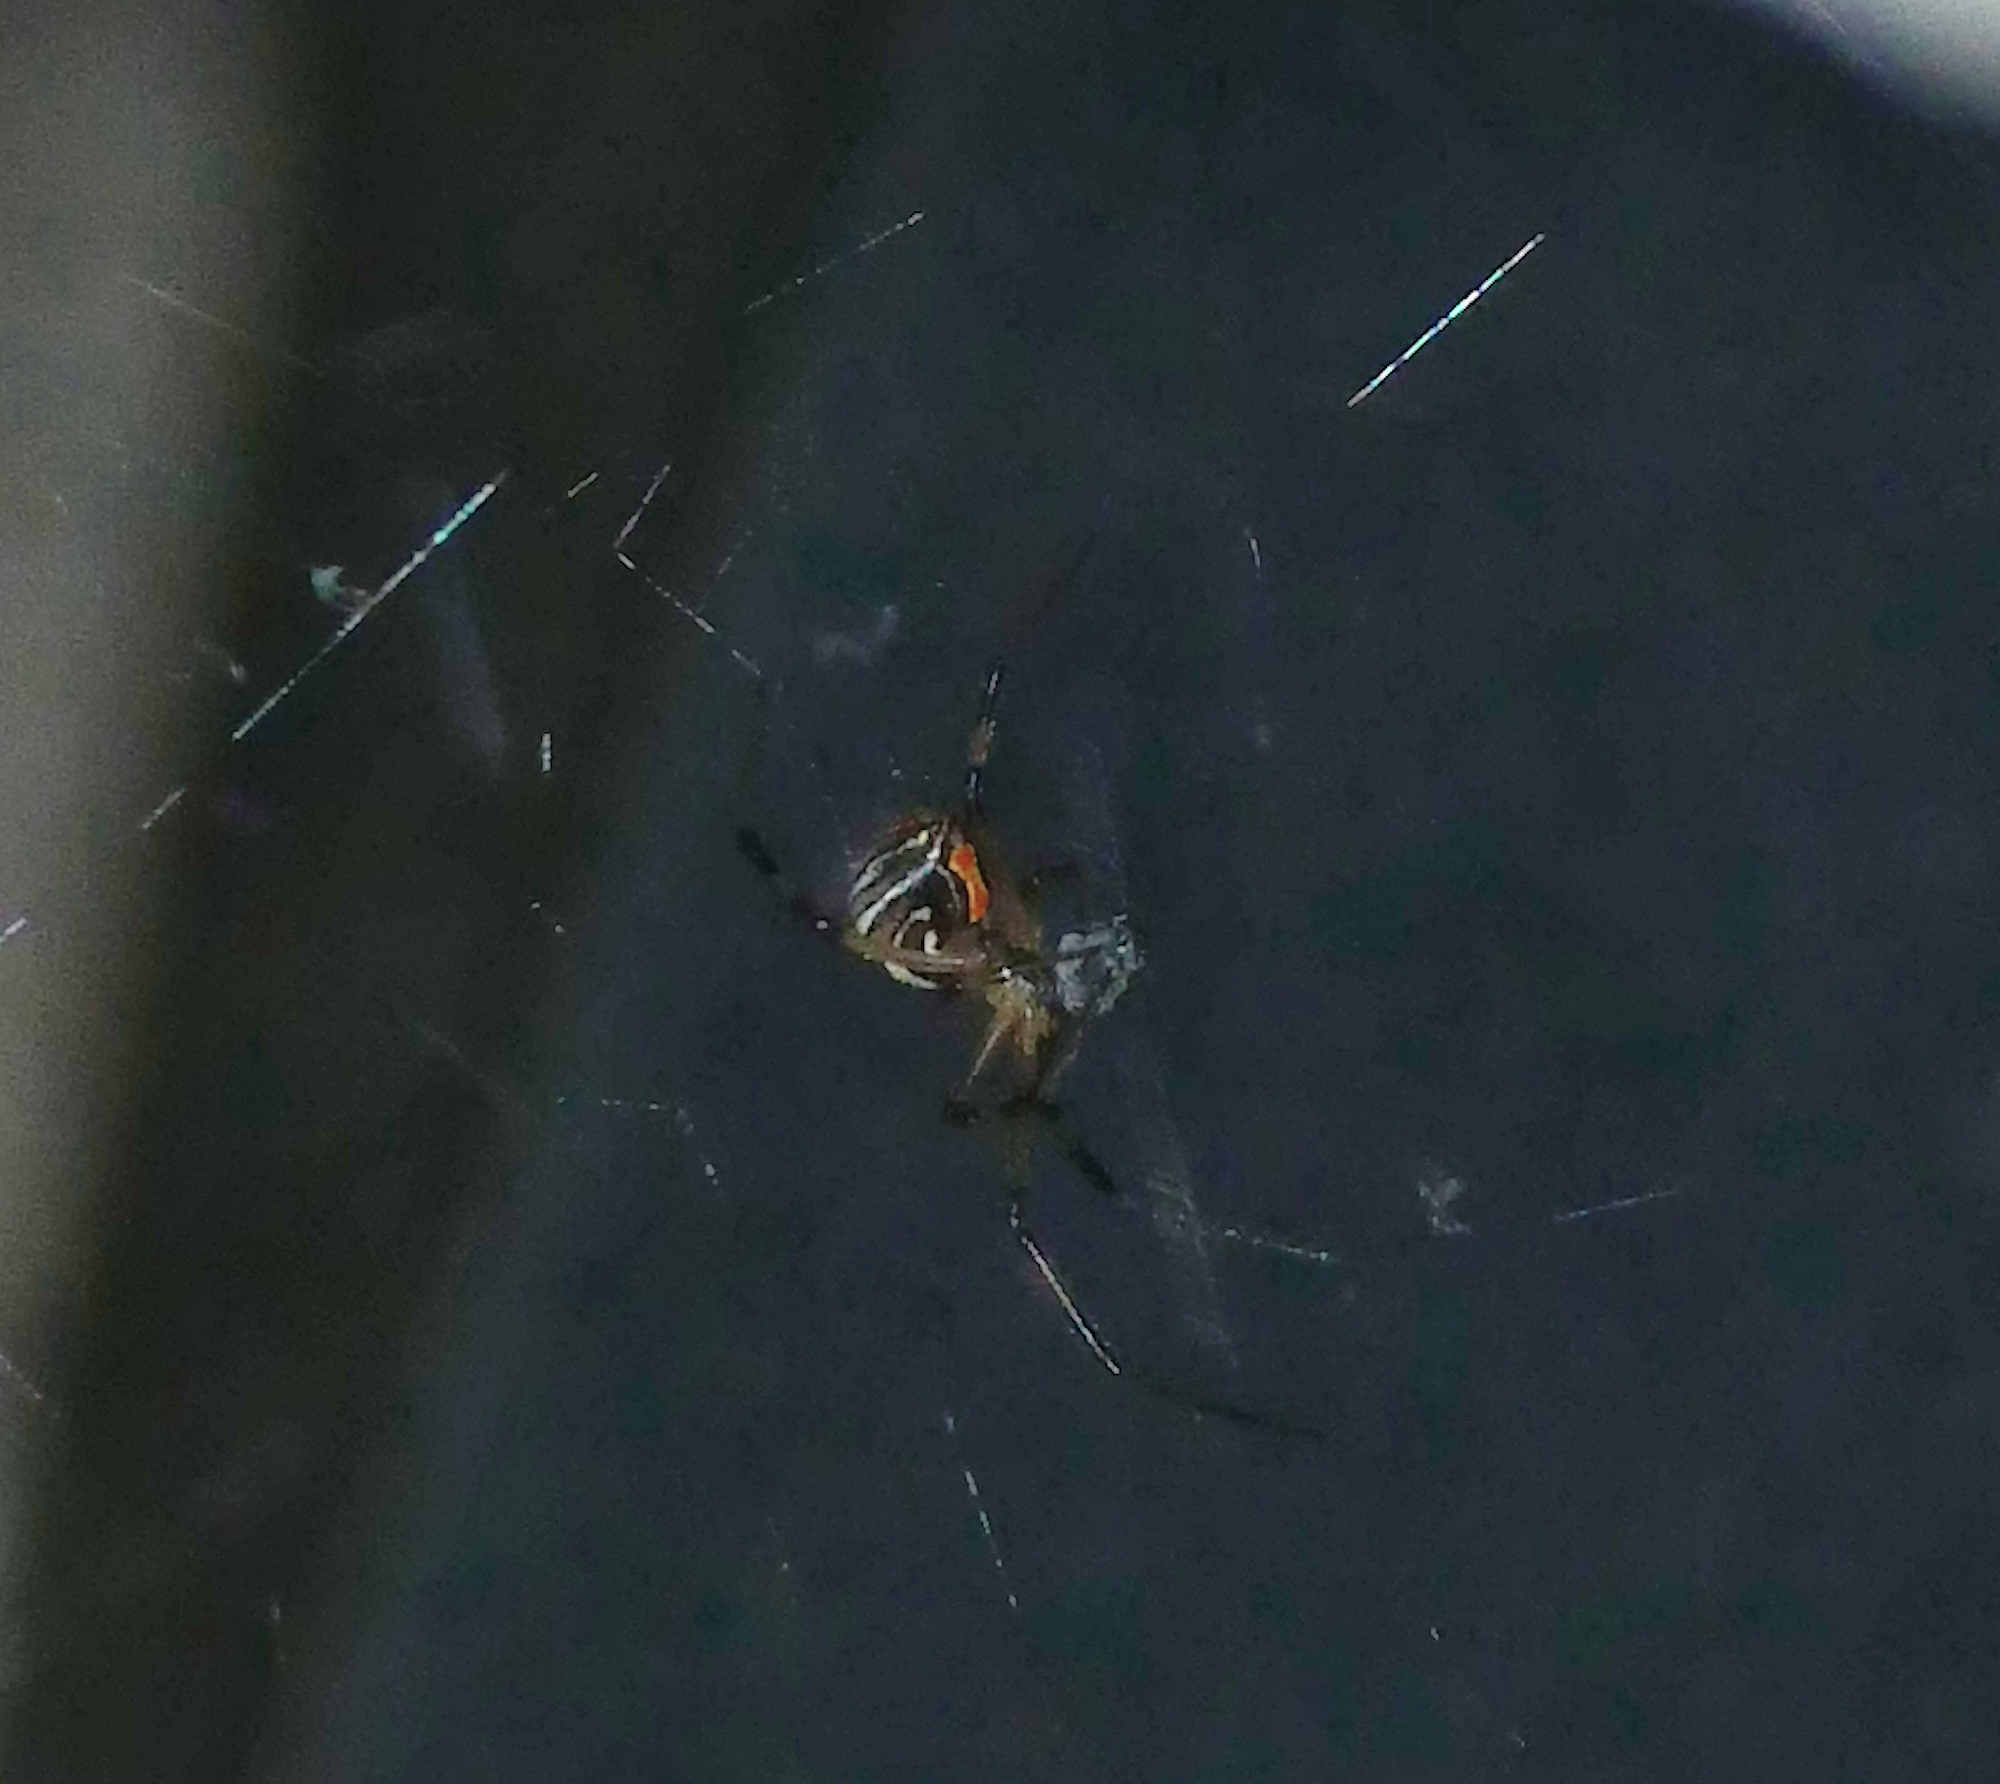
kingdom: Animalia
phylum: Arthropoda
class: Arachnida
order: Araneae
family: Theridiidae
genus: Latrodectus
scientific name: Latrodectus hesperus
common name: Western black widow
